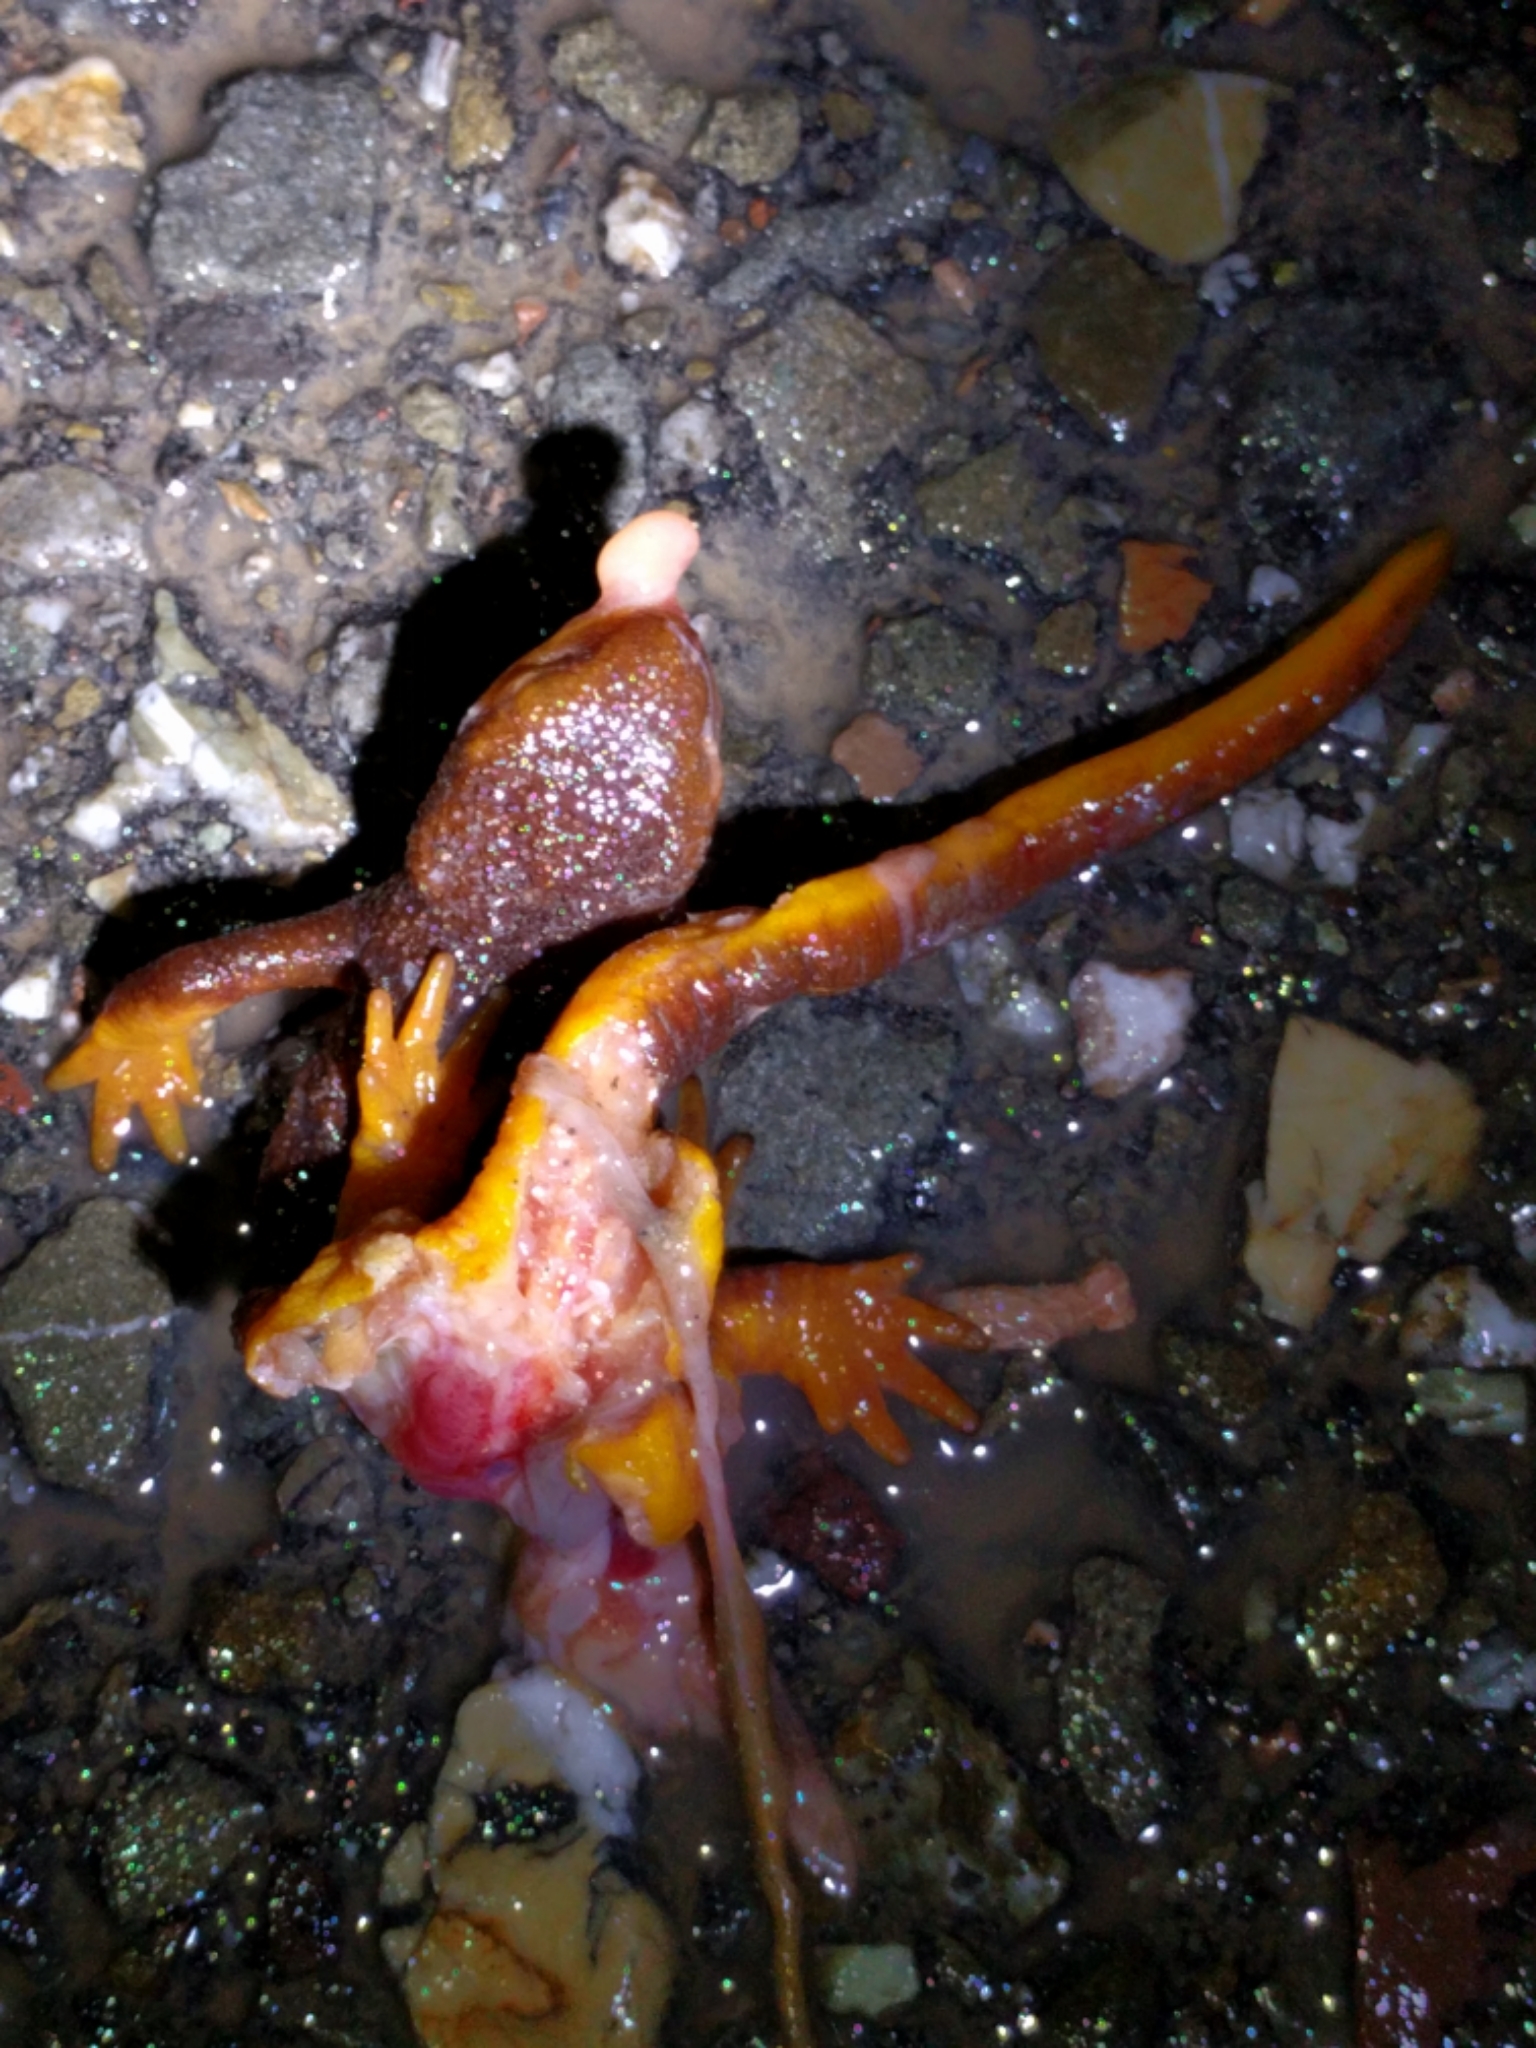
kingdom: Animalia
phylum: Chordata
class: Amphibia
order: Caudata
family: Salamandridae
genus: Taricha
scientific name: Taricha torosa
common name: California newt
